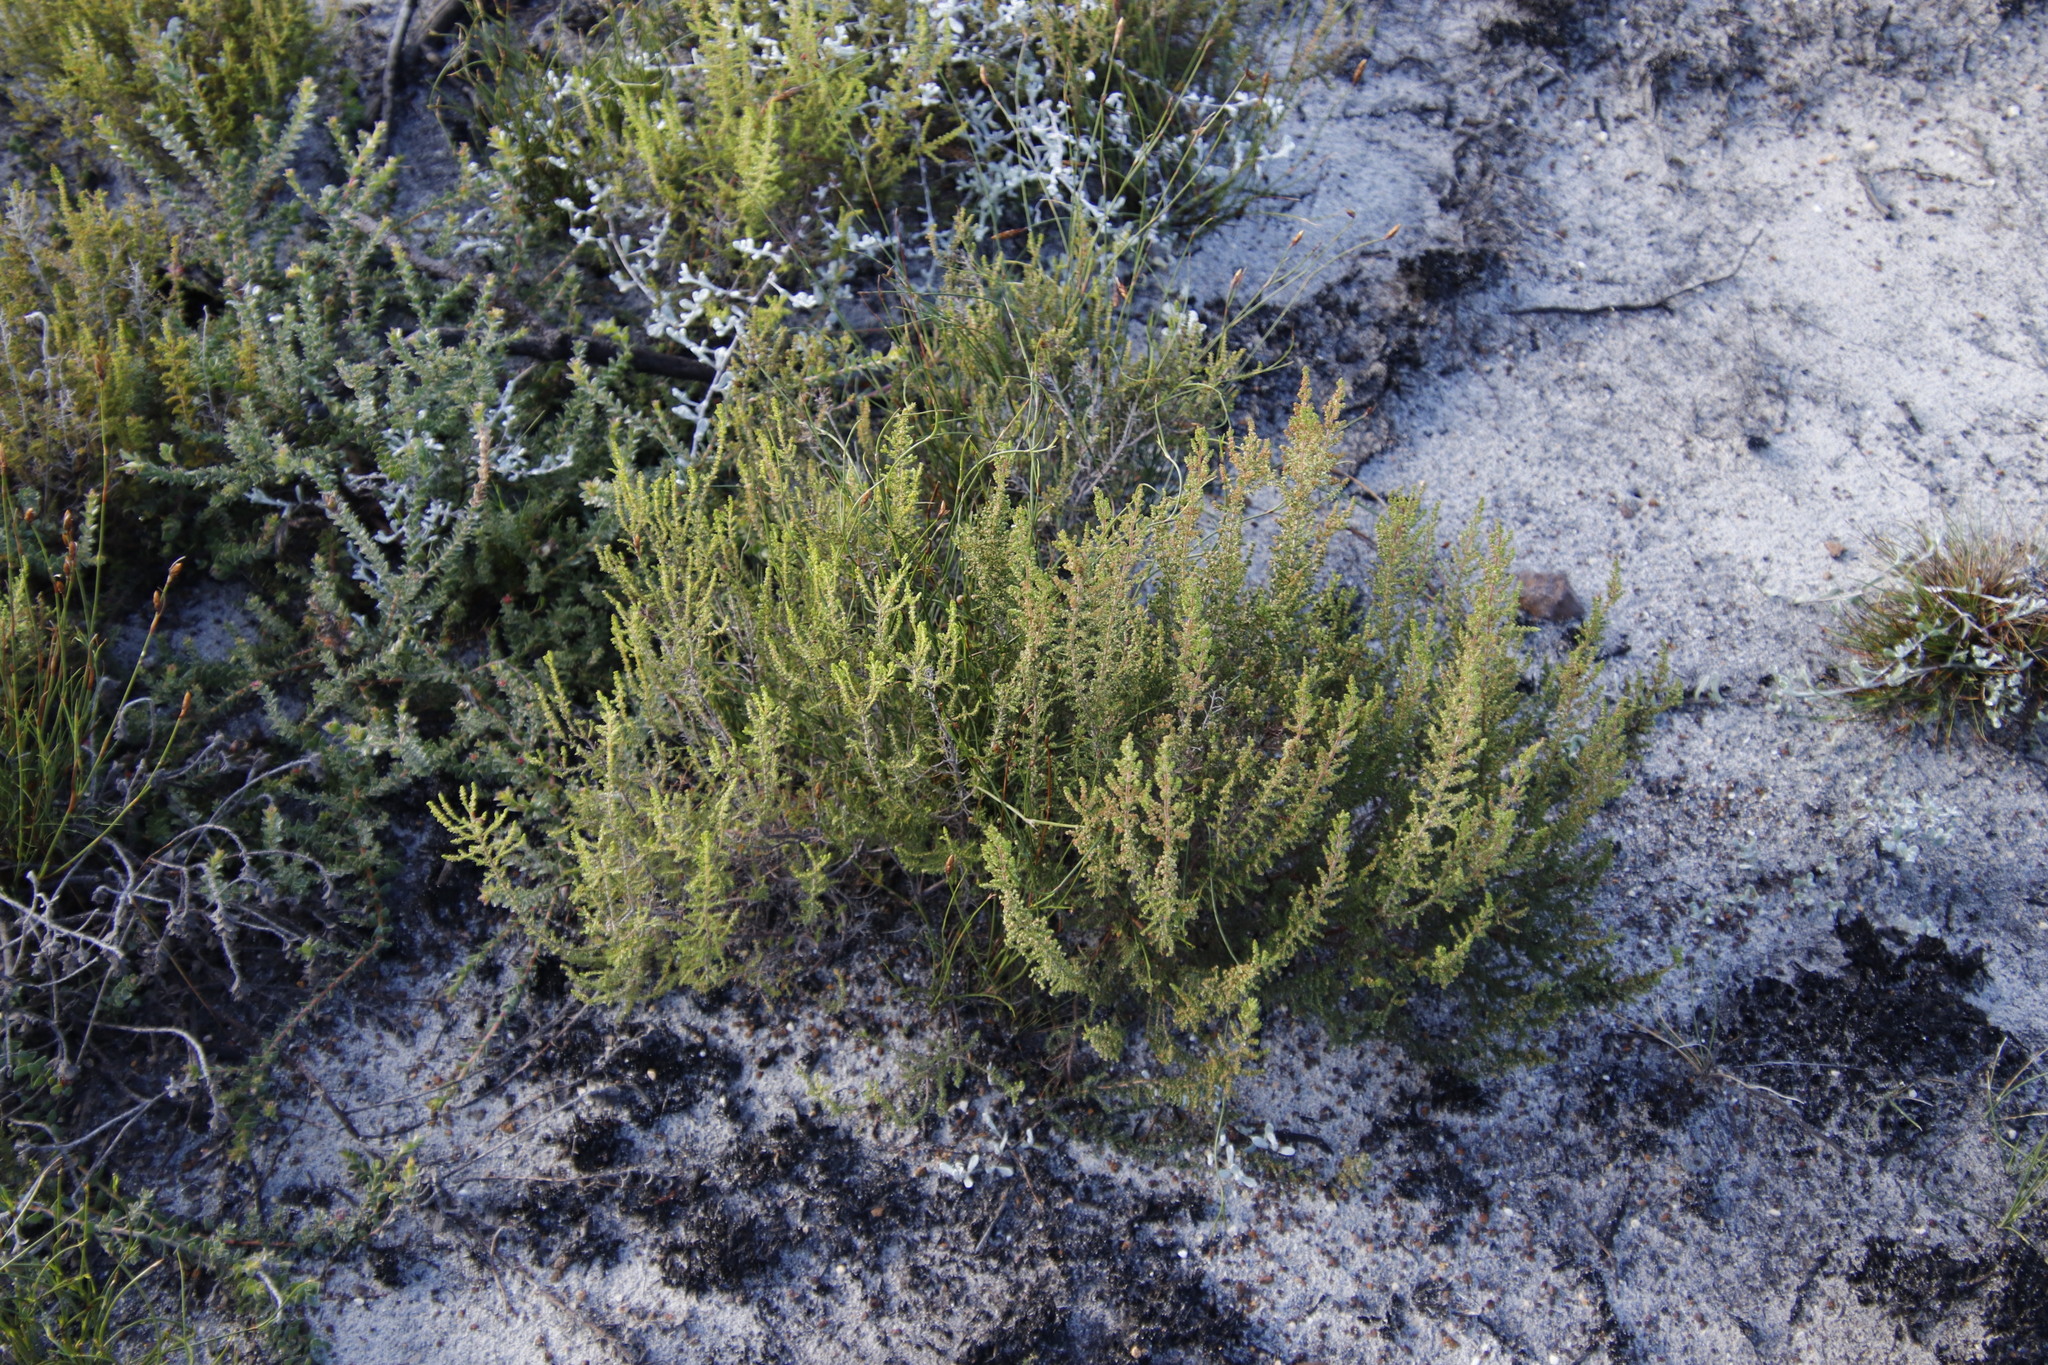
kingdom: Plantae
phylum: Tracheophyta
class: Magnoliopsida
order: Ericales
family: Ericaceae
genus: Erica
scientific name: Erica muscosa
